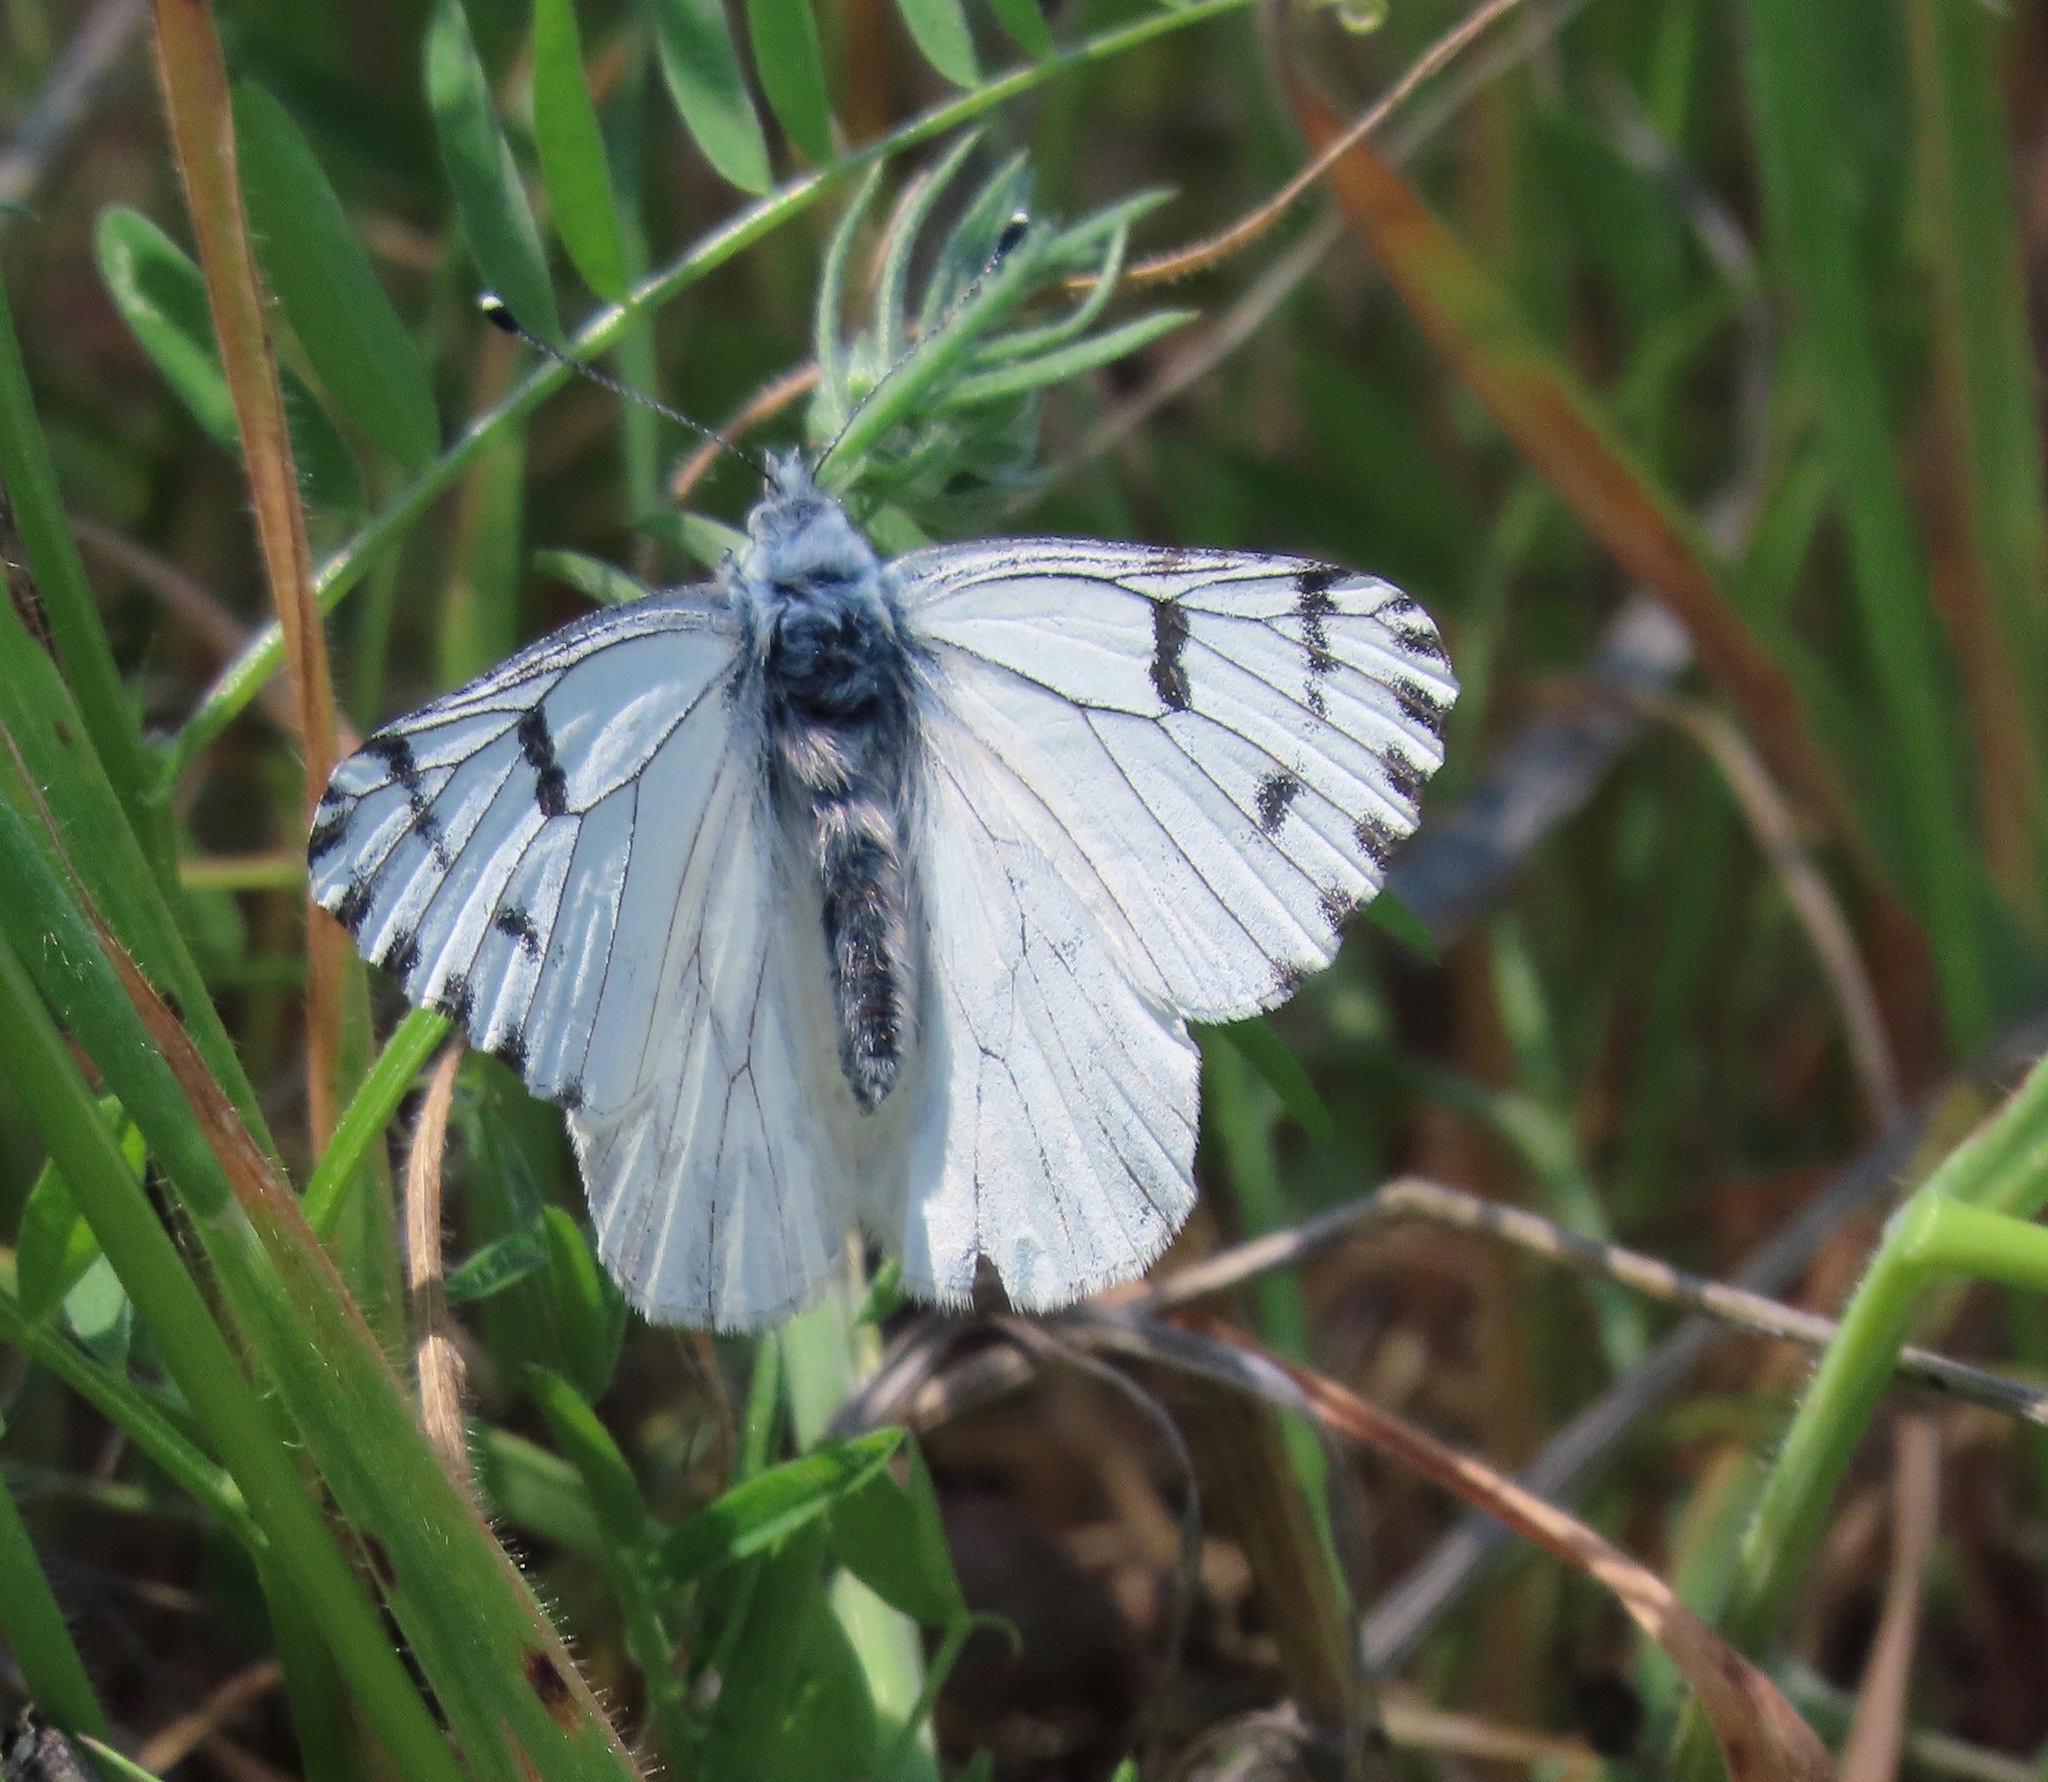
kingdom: Animalia
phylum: Arthropoda
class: Insecta
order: Lepidoptera
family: Pieridae
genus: Pontia
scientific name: Pontia sisymbrii
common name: California white
